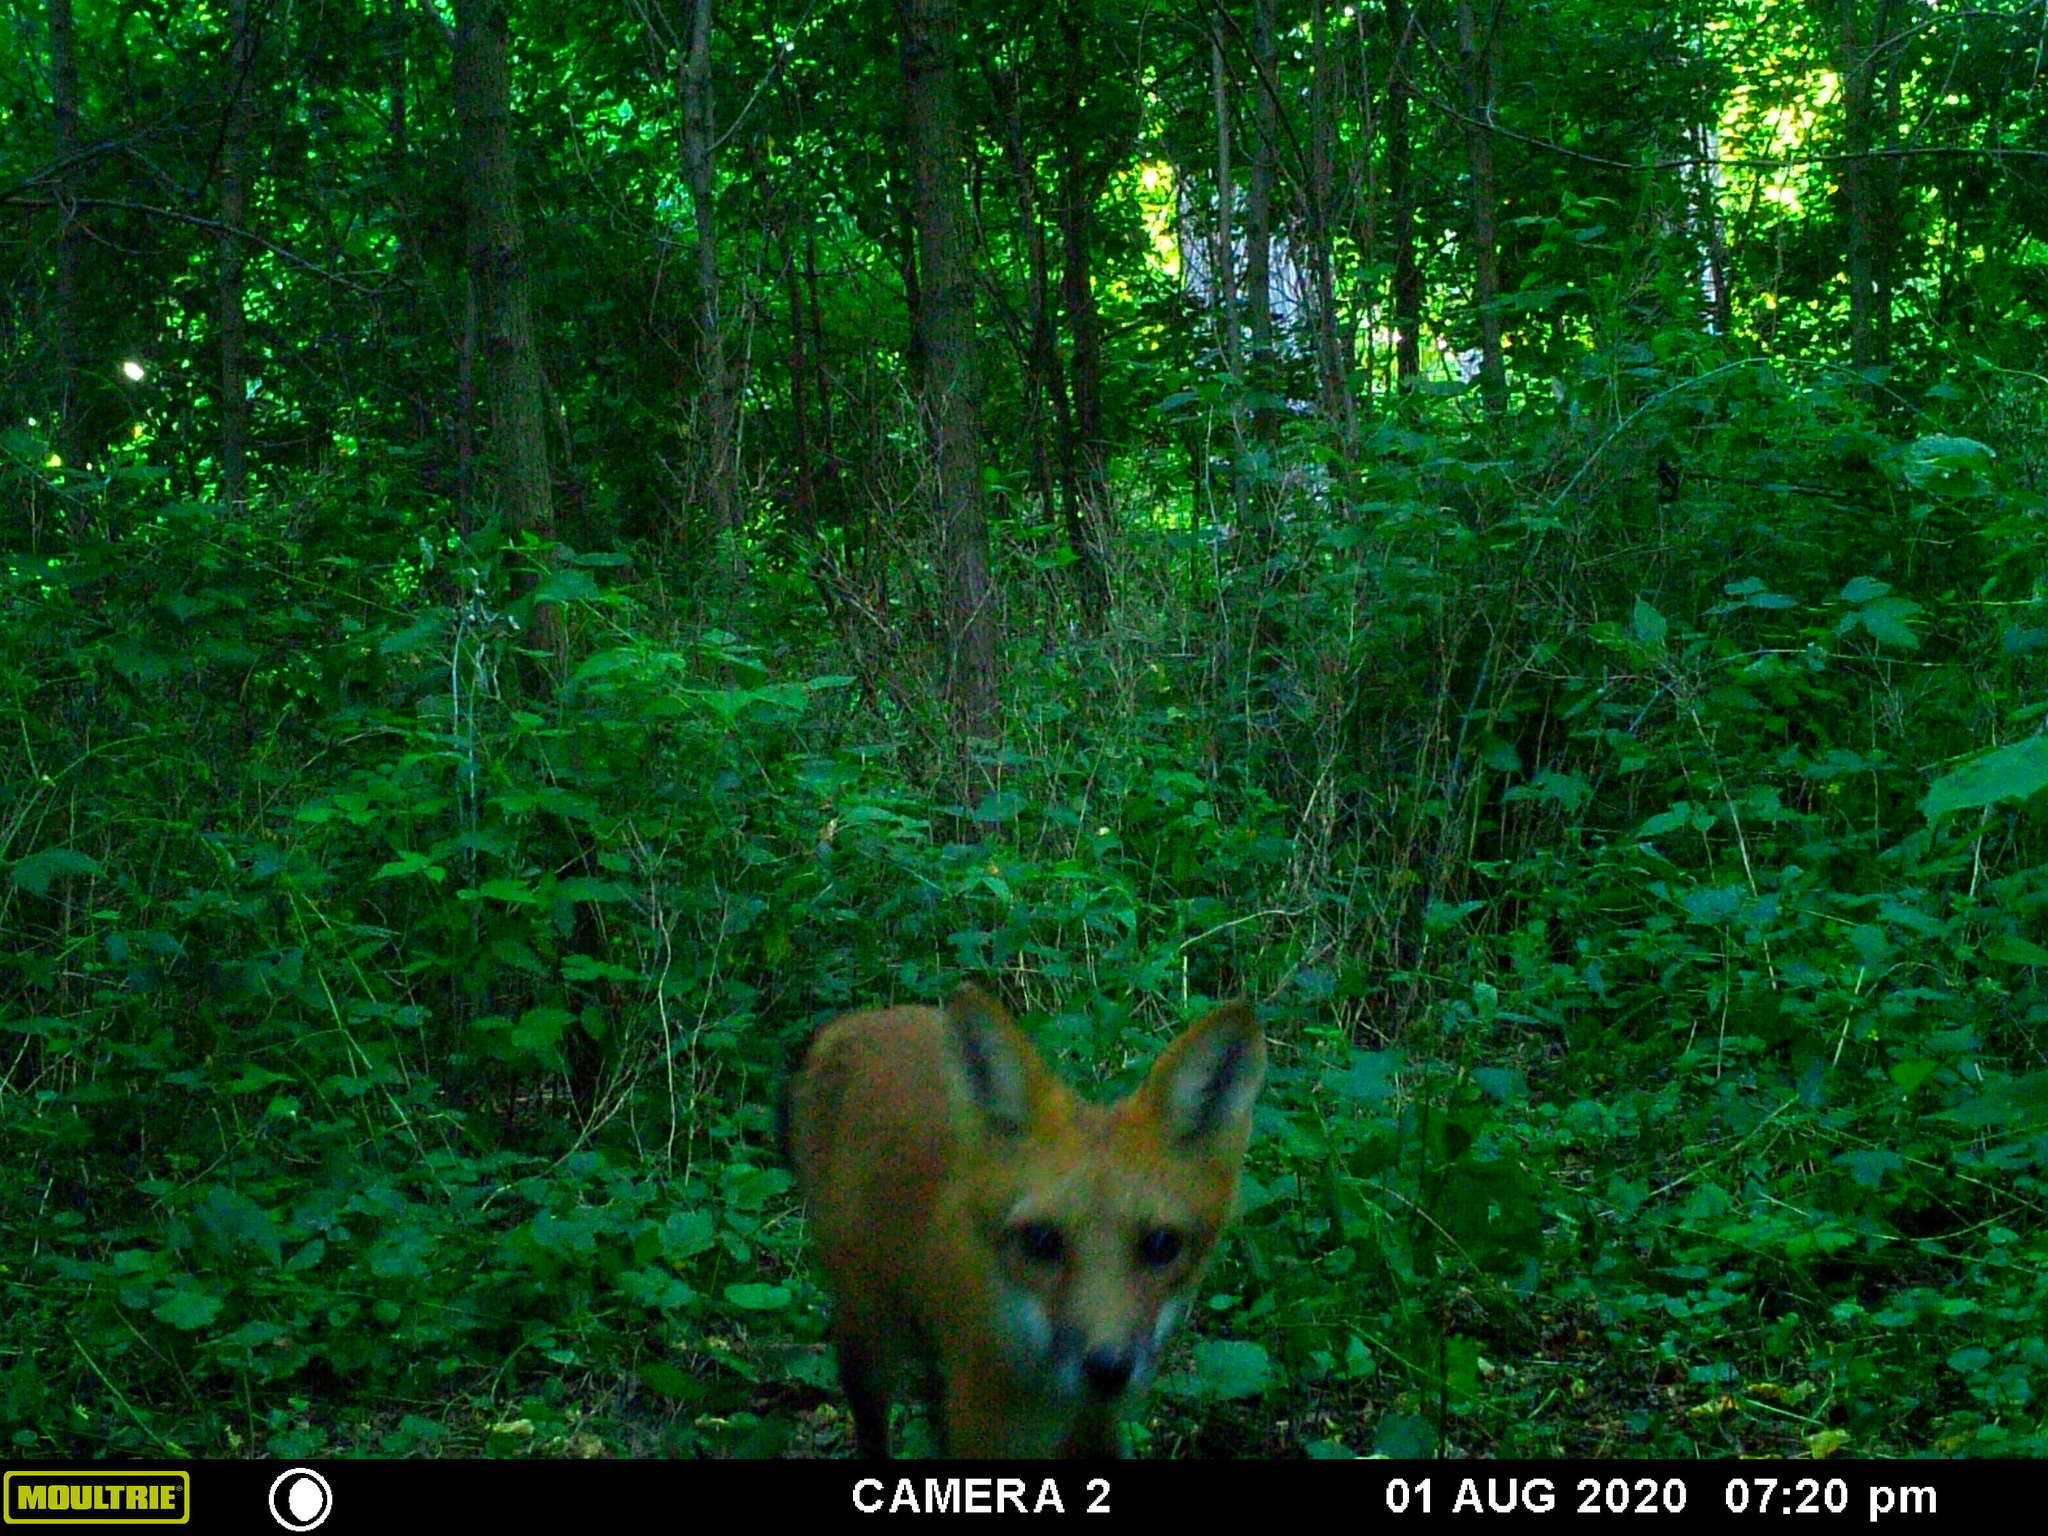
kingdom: Animalia
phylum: Chordata
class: Mammalia
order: Carnivora
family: Canidae
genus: Vulpes
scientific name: Vulpes vulpes
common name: Red fox
